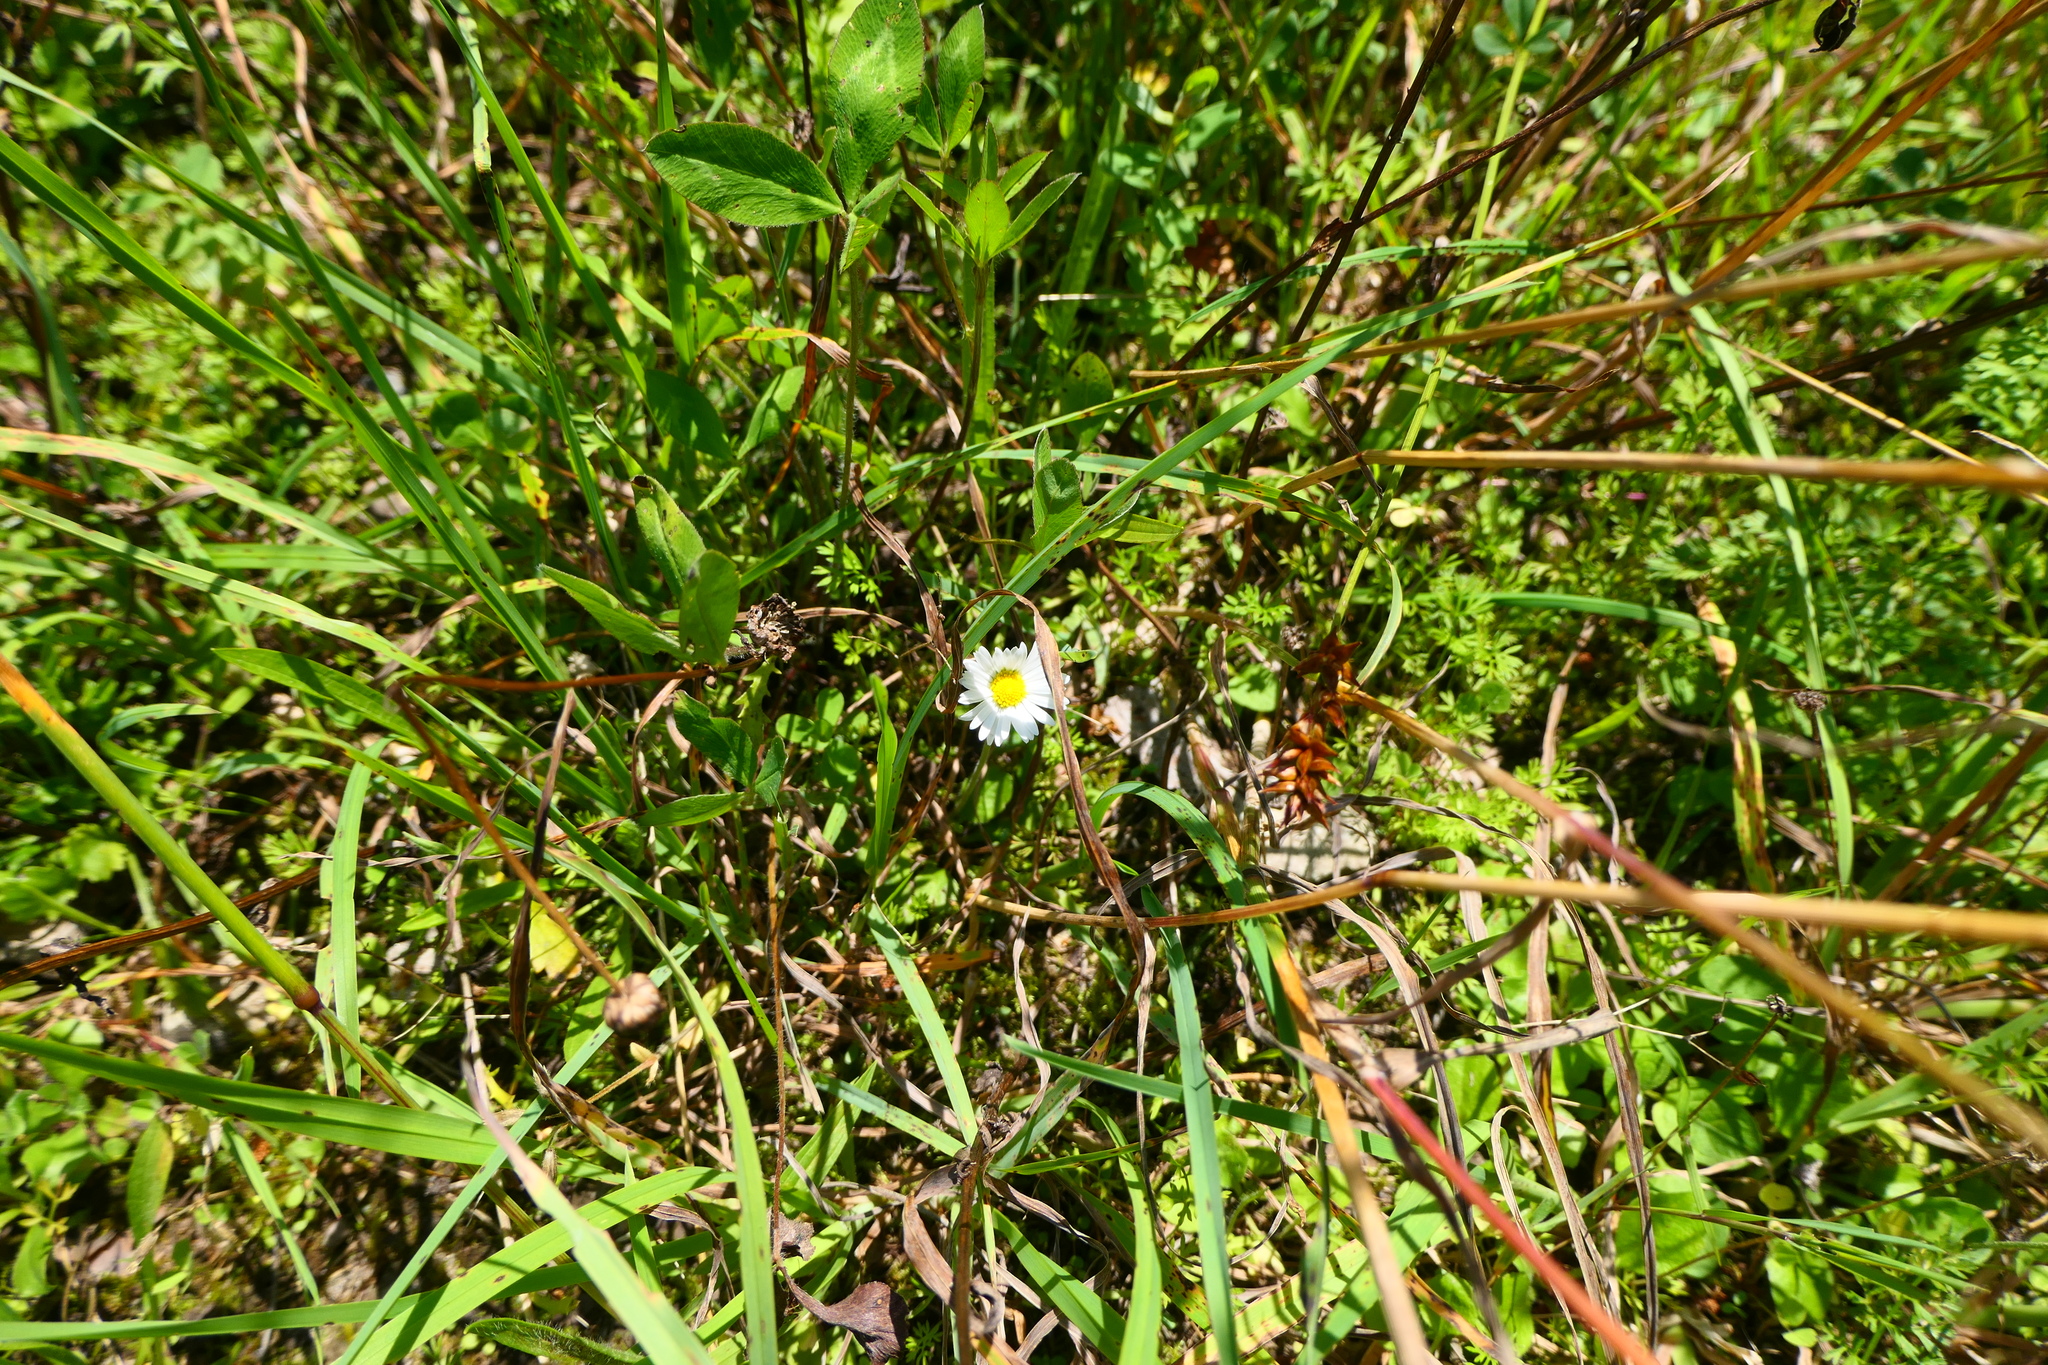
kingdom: Plantae
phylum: Tracheophyta
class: Magnoliopsida
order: Asterales
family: Asteraceae
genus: Bellis
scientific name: Bellis perennis
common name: Lawndaisy
